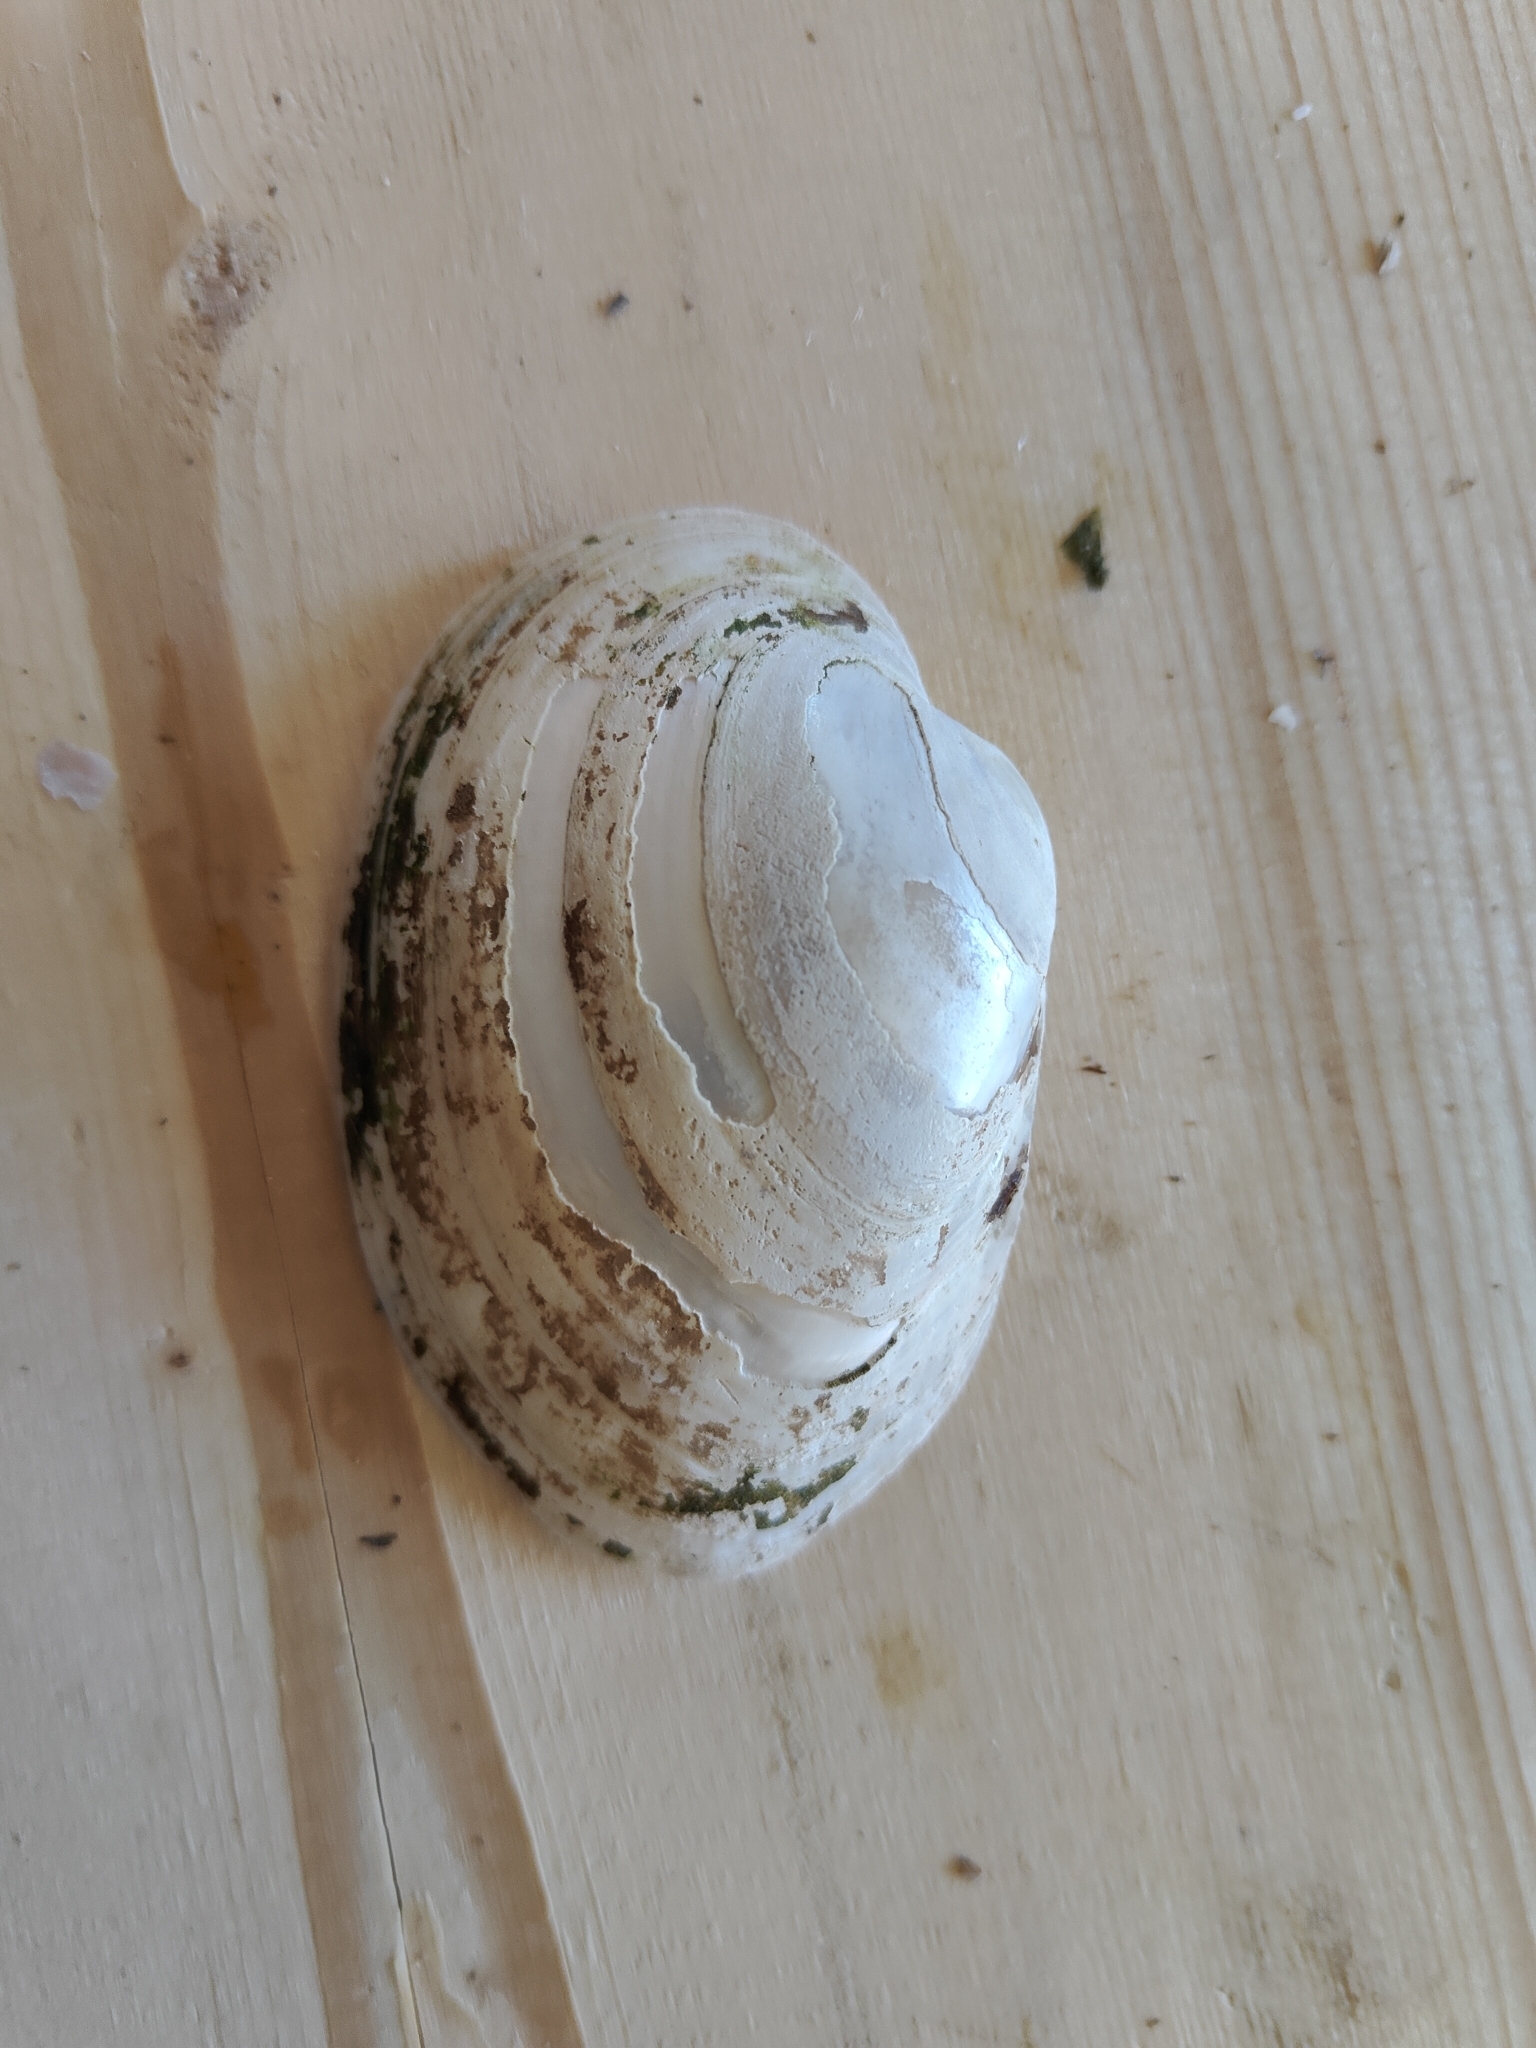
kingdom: Animalia
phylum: Mollusca
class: Bivalvia
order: Unionida
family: Unionidae
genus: Lampsilis
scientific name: Lampsilis cardium
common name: Plain pocketbook
